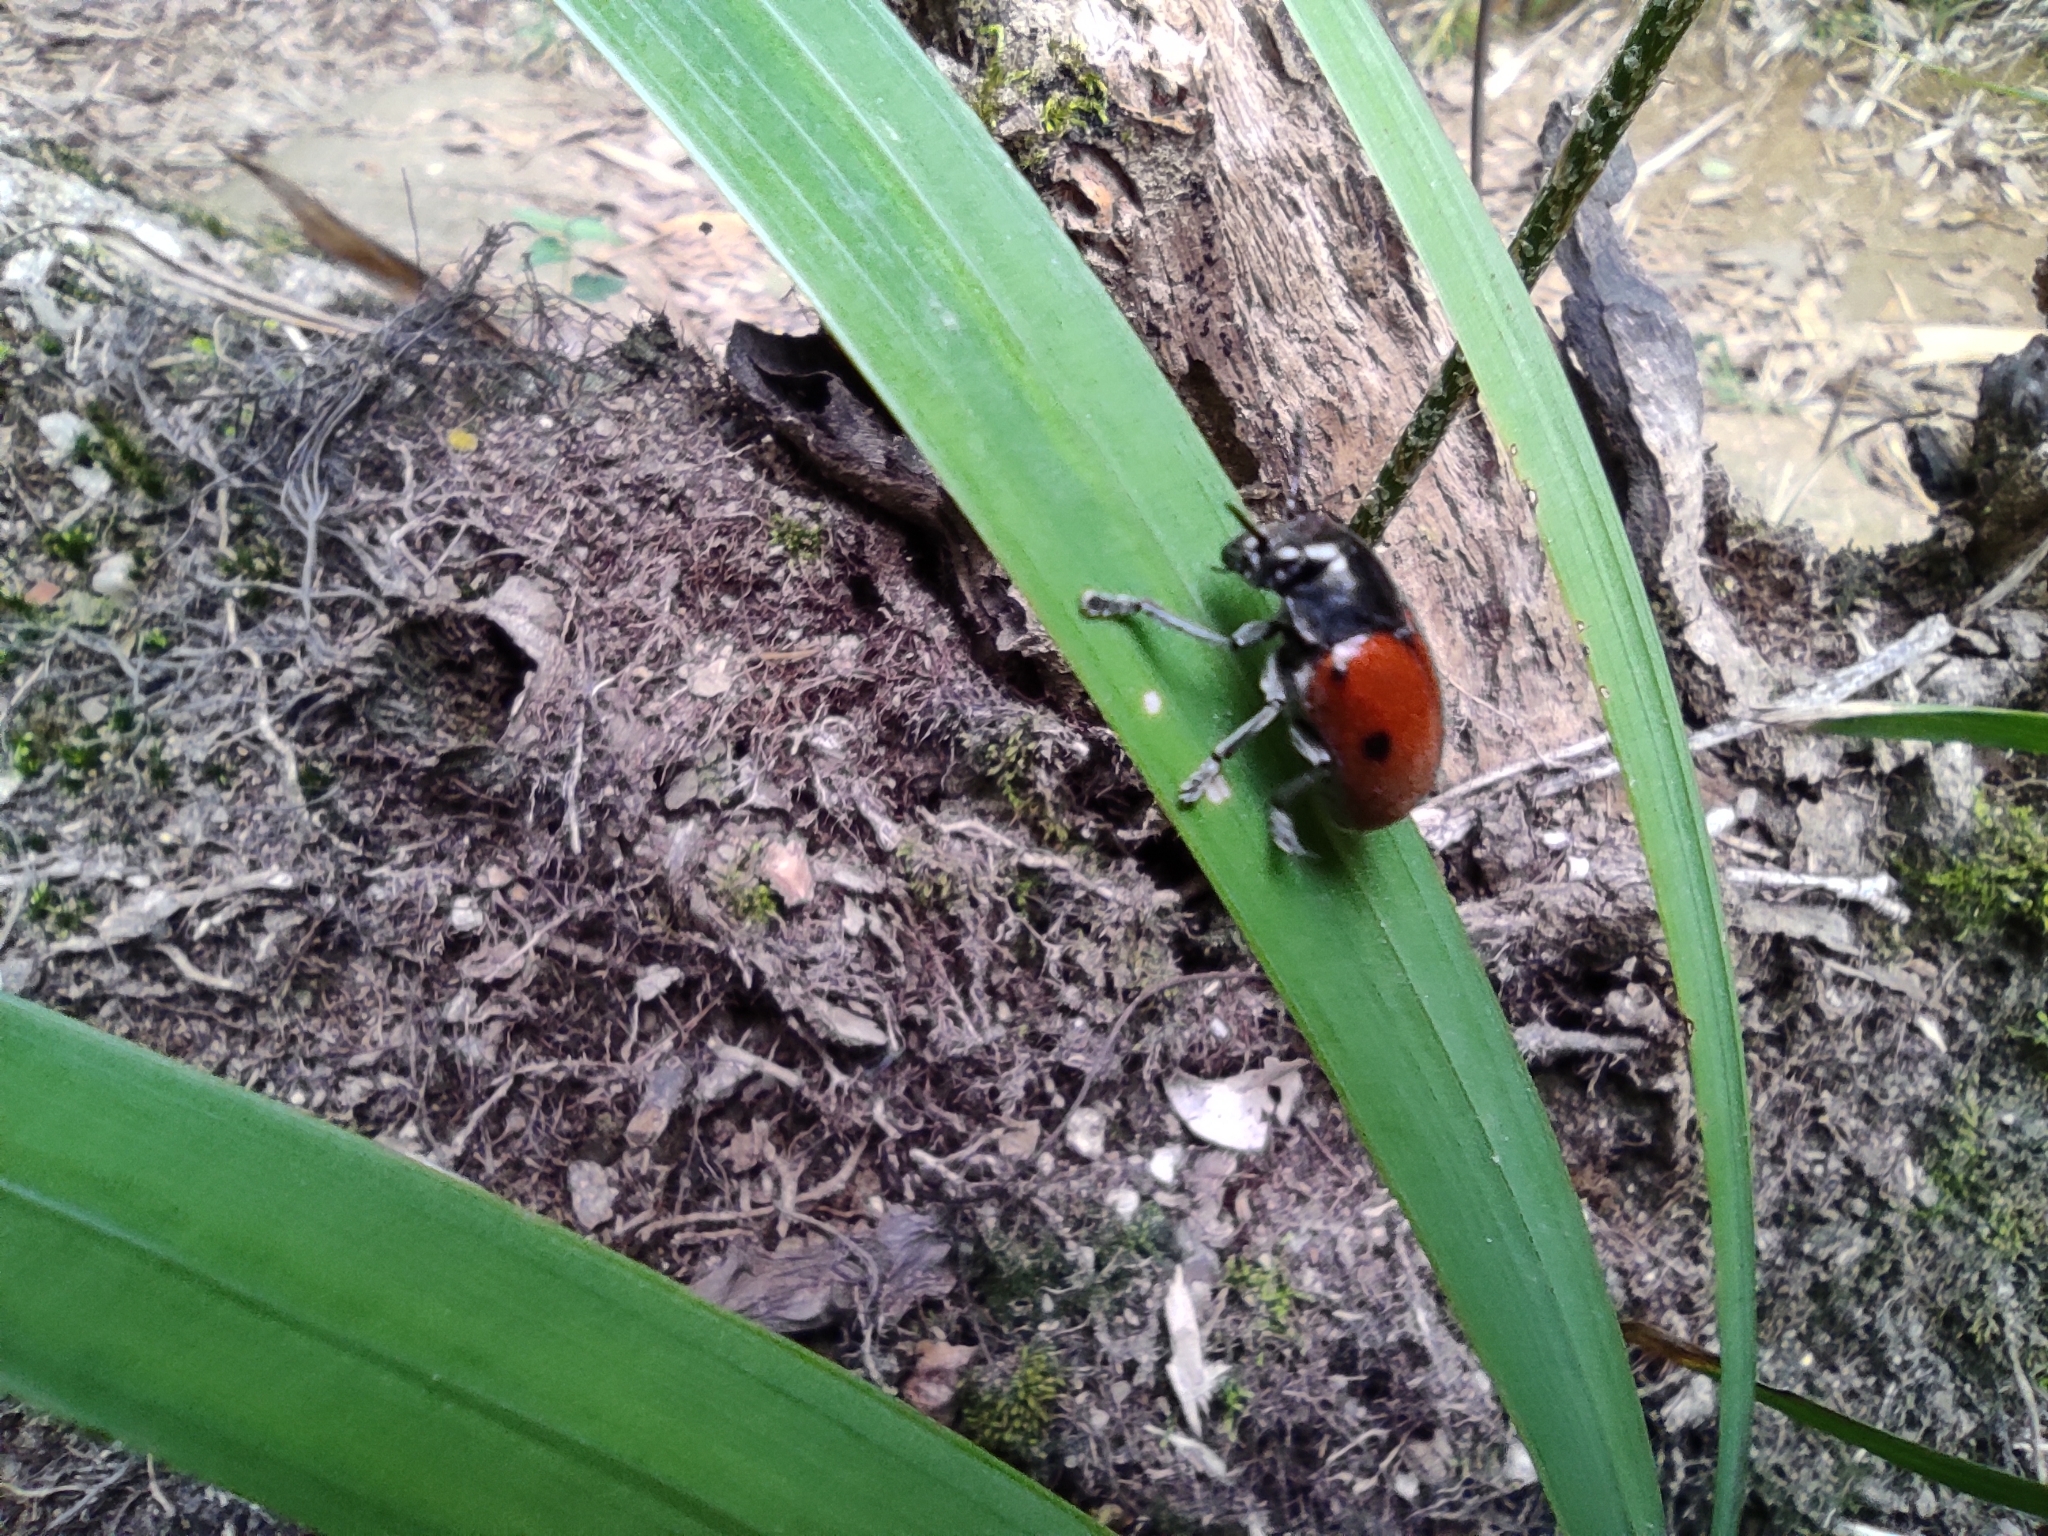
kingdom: Animalia
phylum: Arthropoda
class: Insecta
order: Coleoptera
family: Chrysomelidae
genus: Megalostomis
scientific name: Megalostomis
